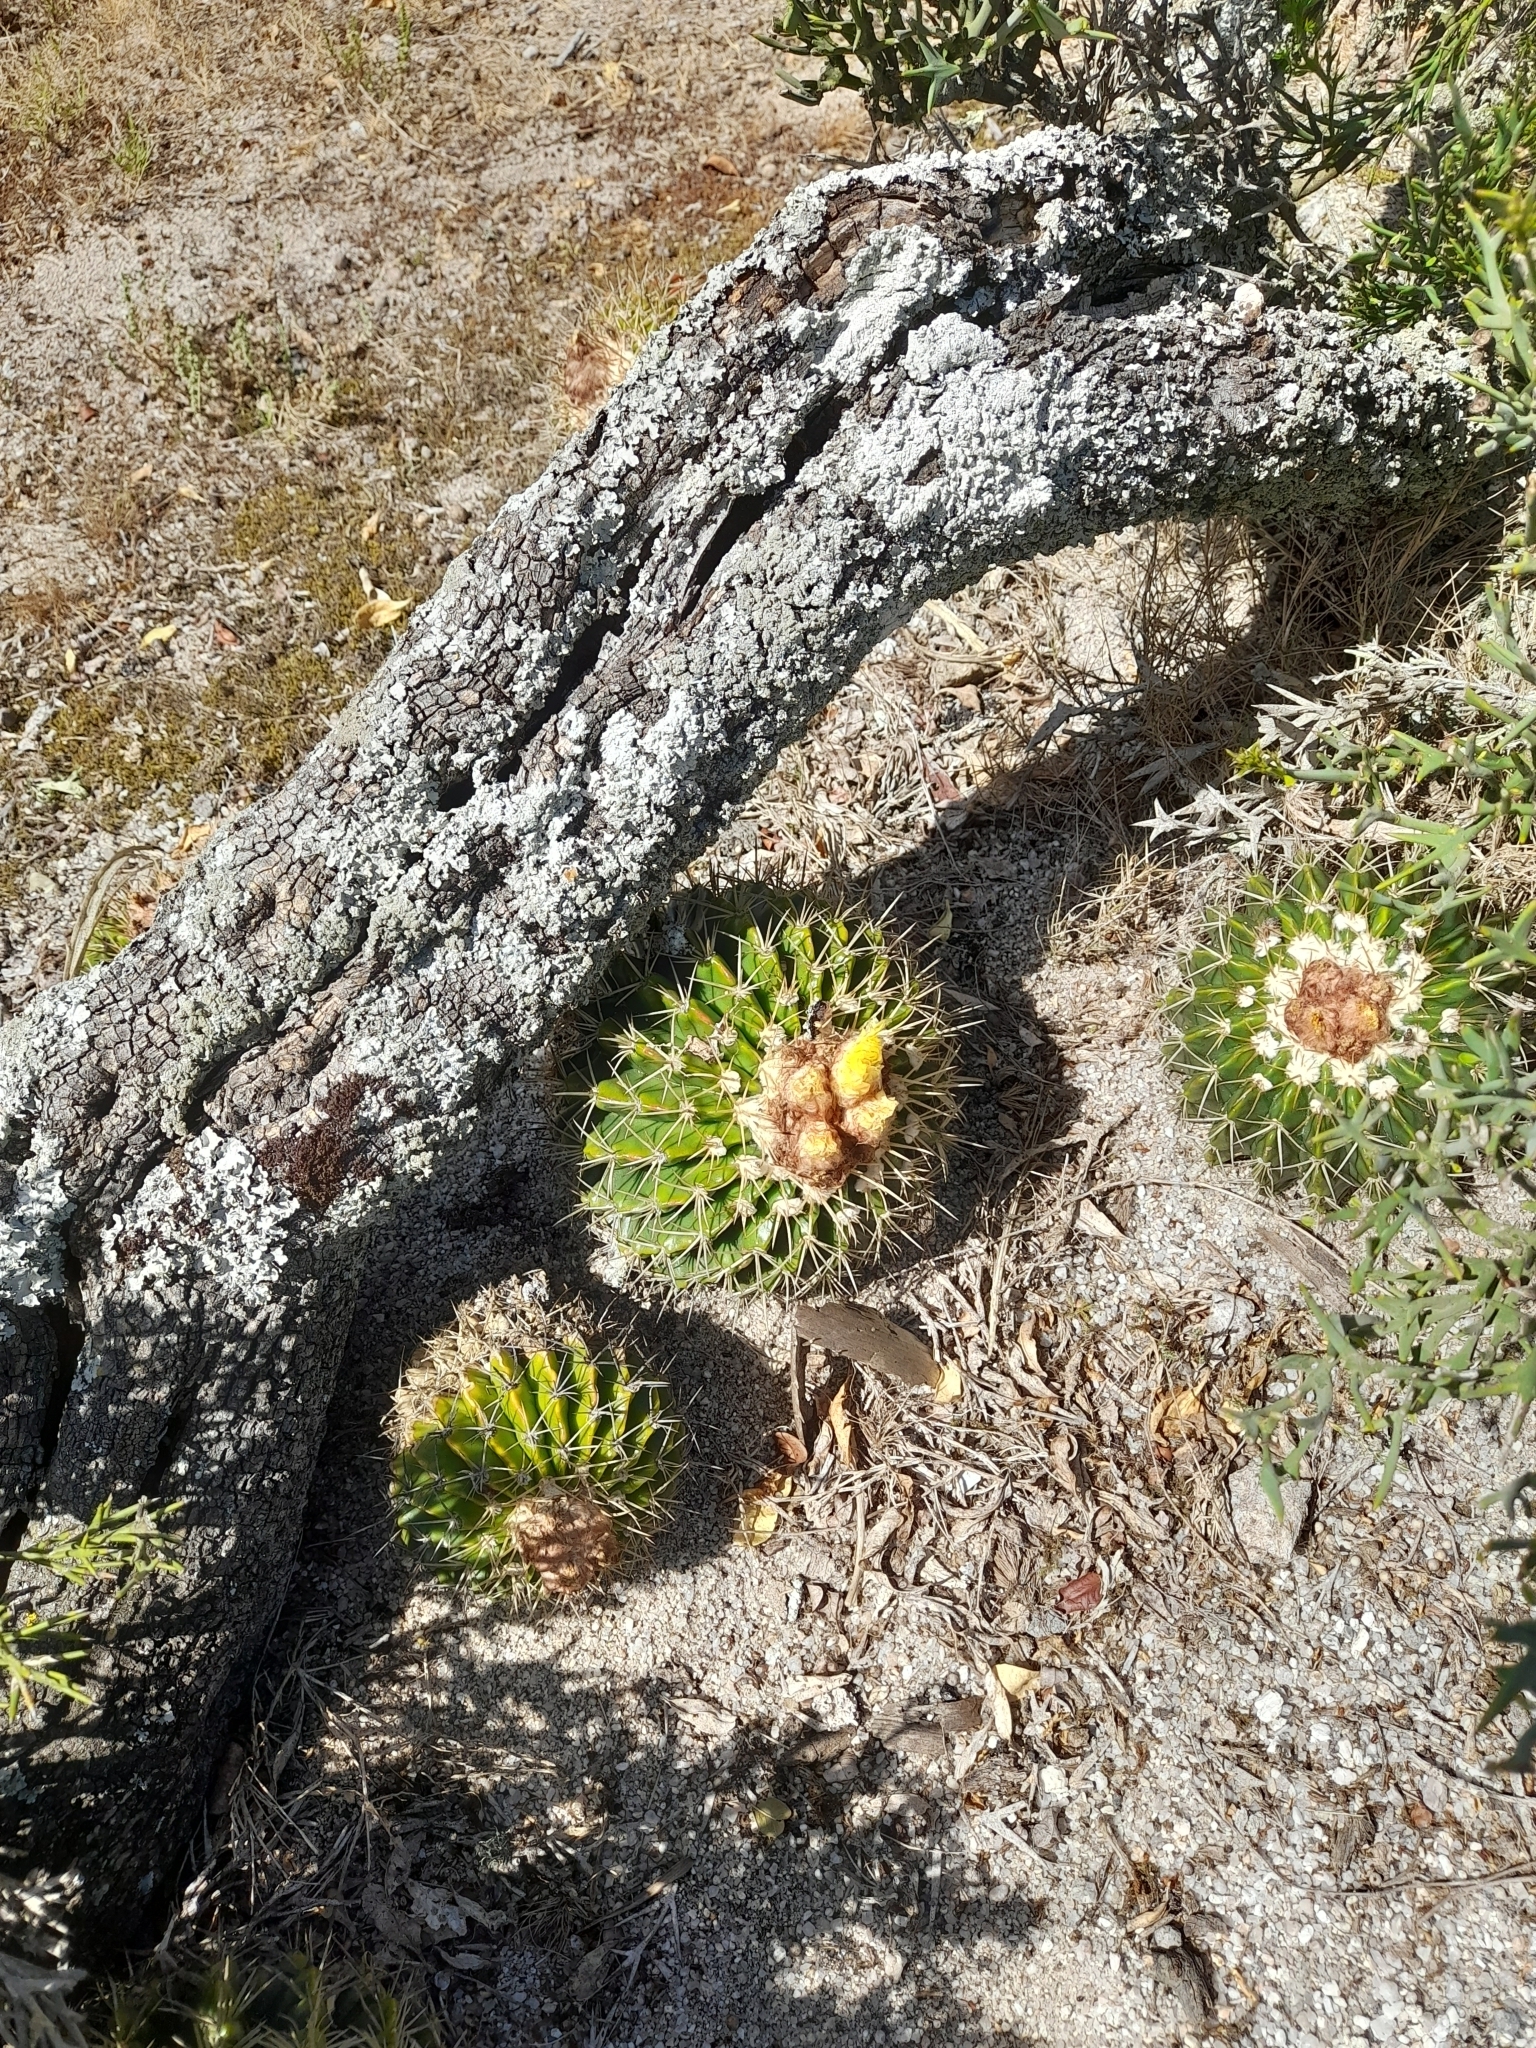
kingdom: Plantae
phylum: Tracheophyta
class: Magnoliopsida
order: Caryophyllales
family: Cactaceae
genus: Parodia
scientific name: Parodia erinacea
